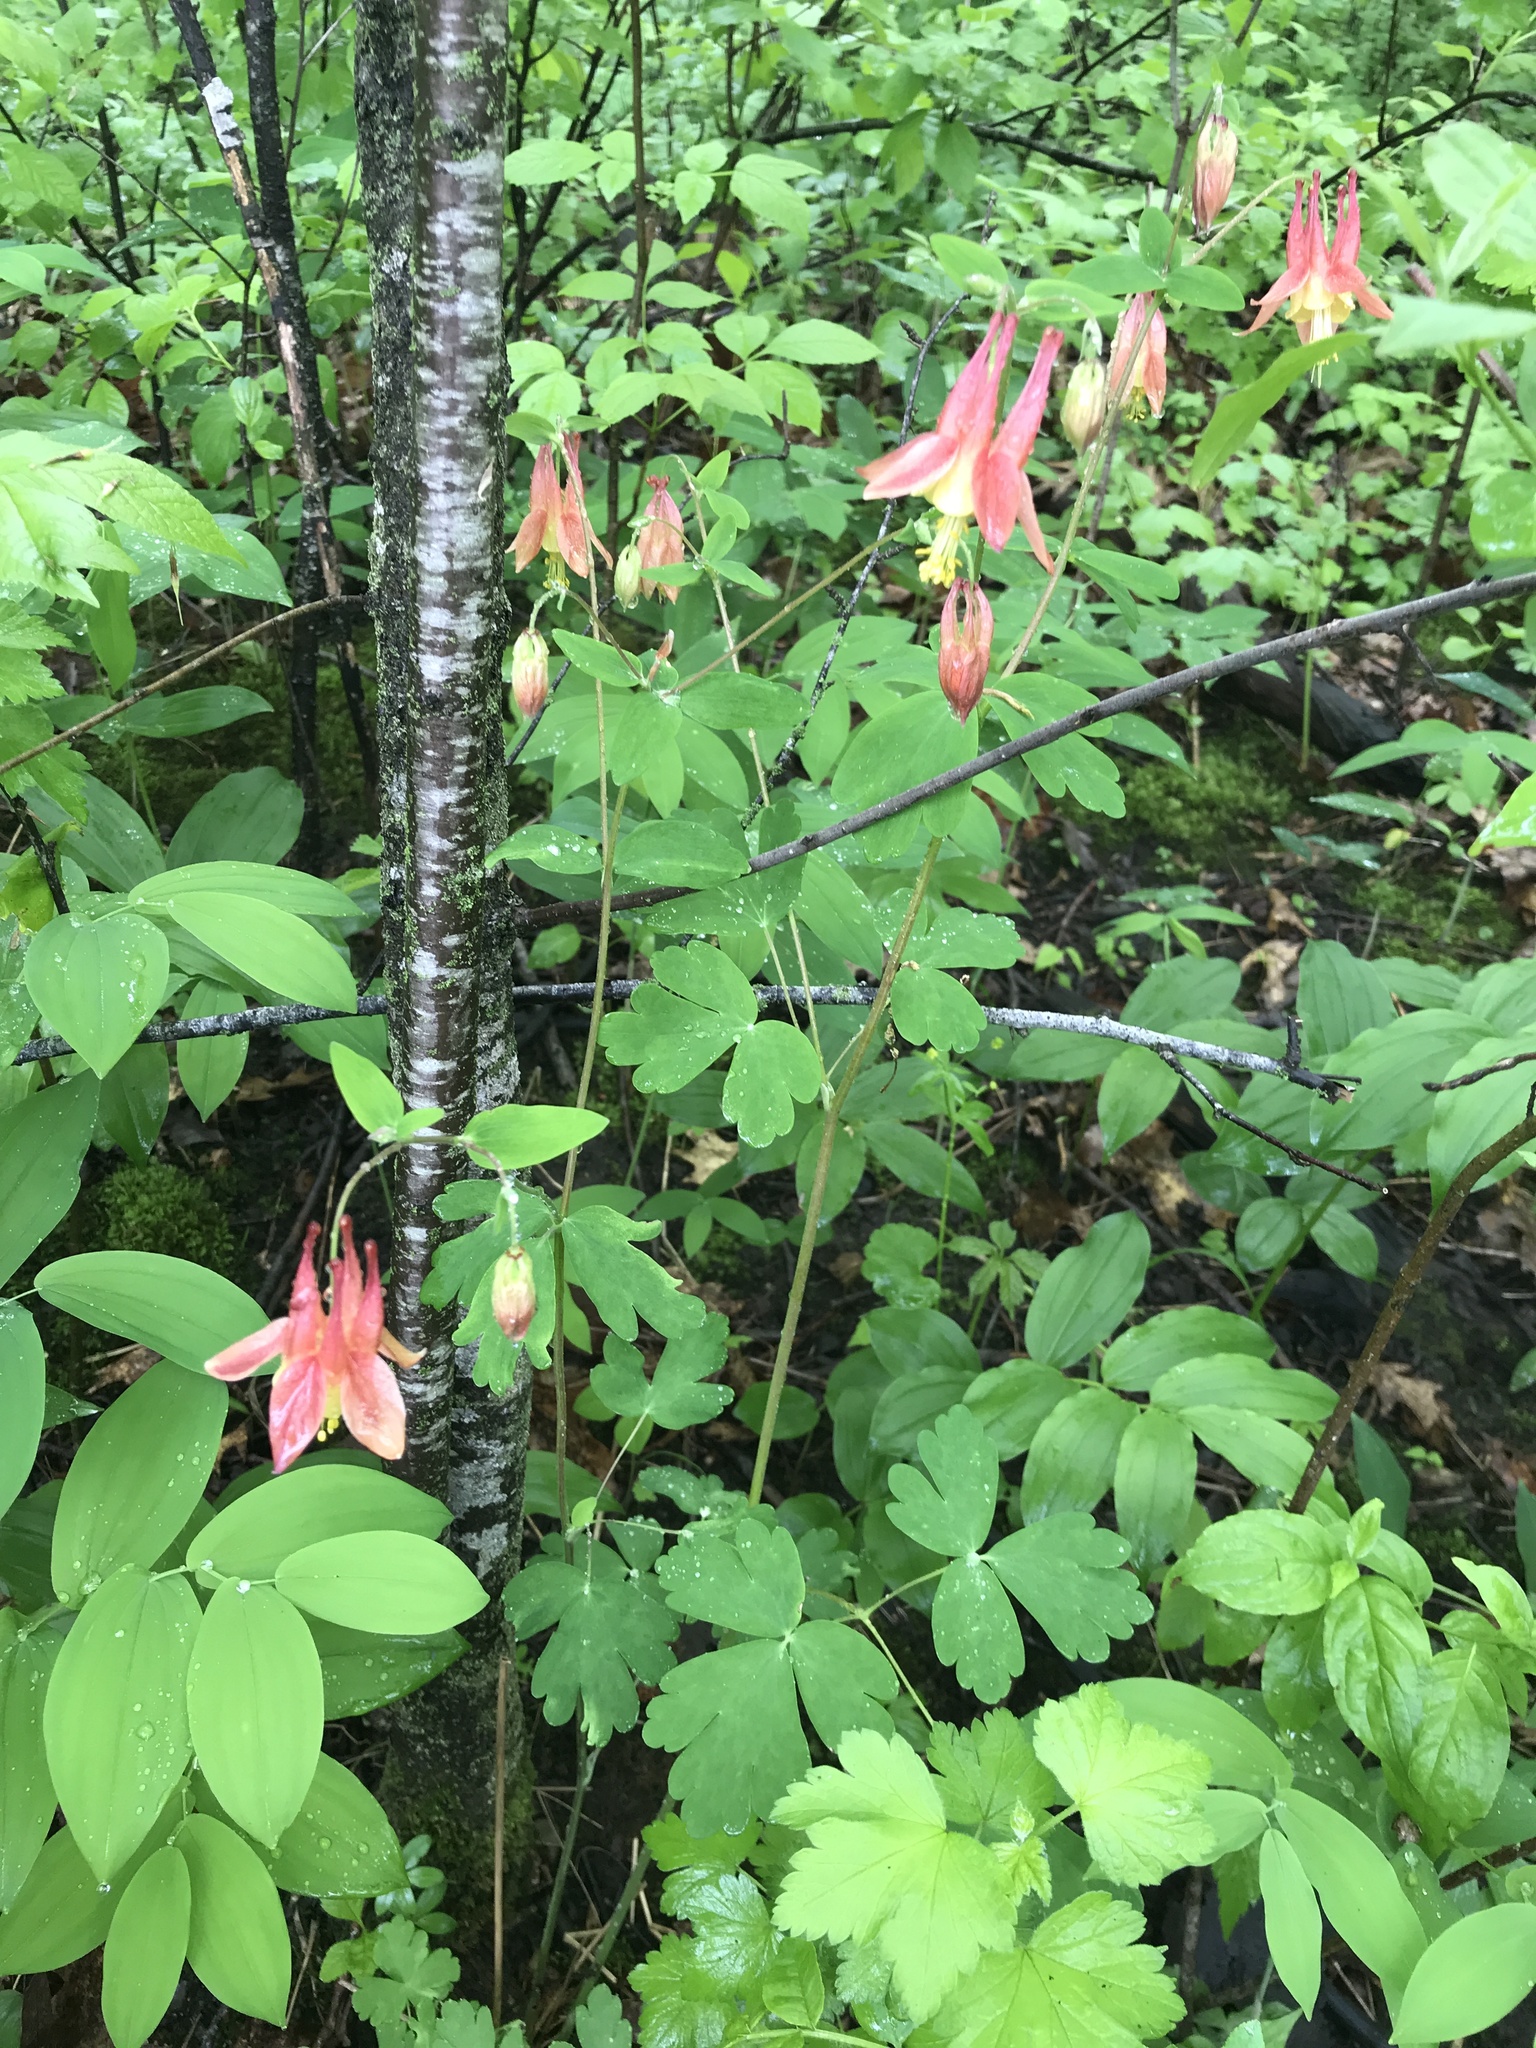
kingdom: Plantae
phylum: Tracheophyta
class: Magnoliopsida
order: Ranunculales
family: Ranunculaceae
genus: Aquilegia
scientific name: Aquilegia canadensis
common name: American columbine
